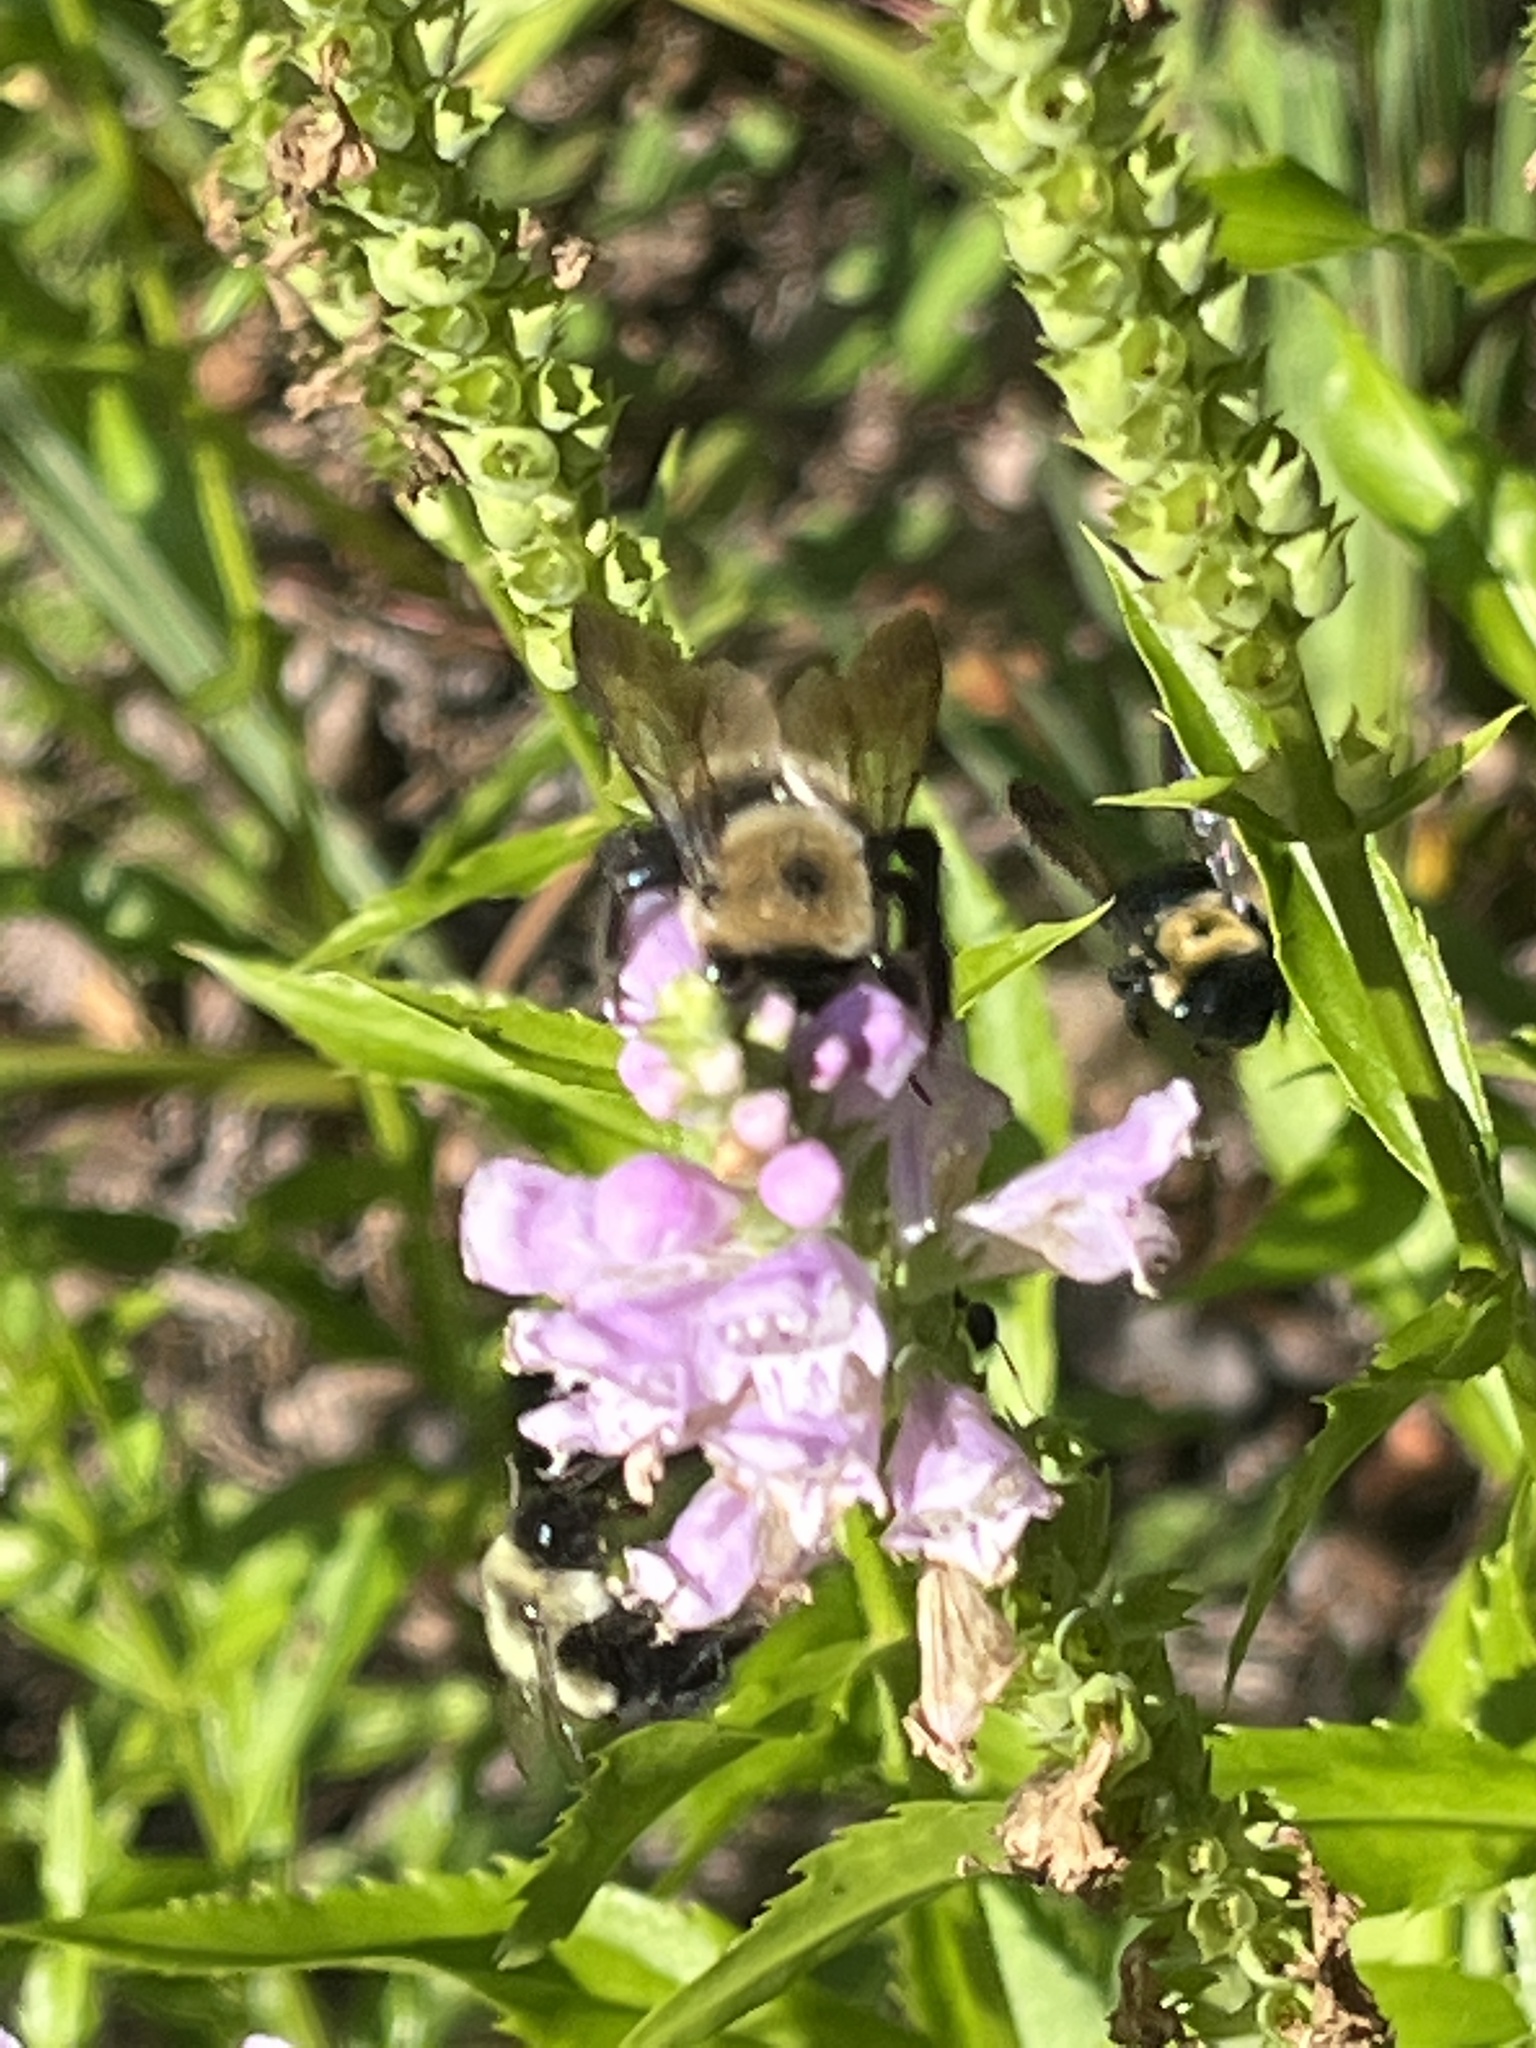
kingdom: Animalia
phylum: Arthropoda
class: Insecta
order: Hymenoptera
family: Apidae
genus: Xylocopa
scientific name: Xylocopa virginica
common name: Carpenter bee
